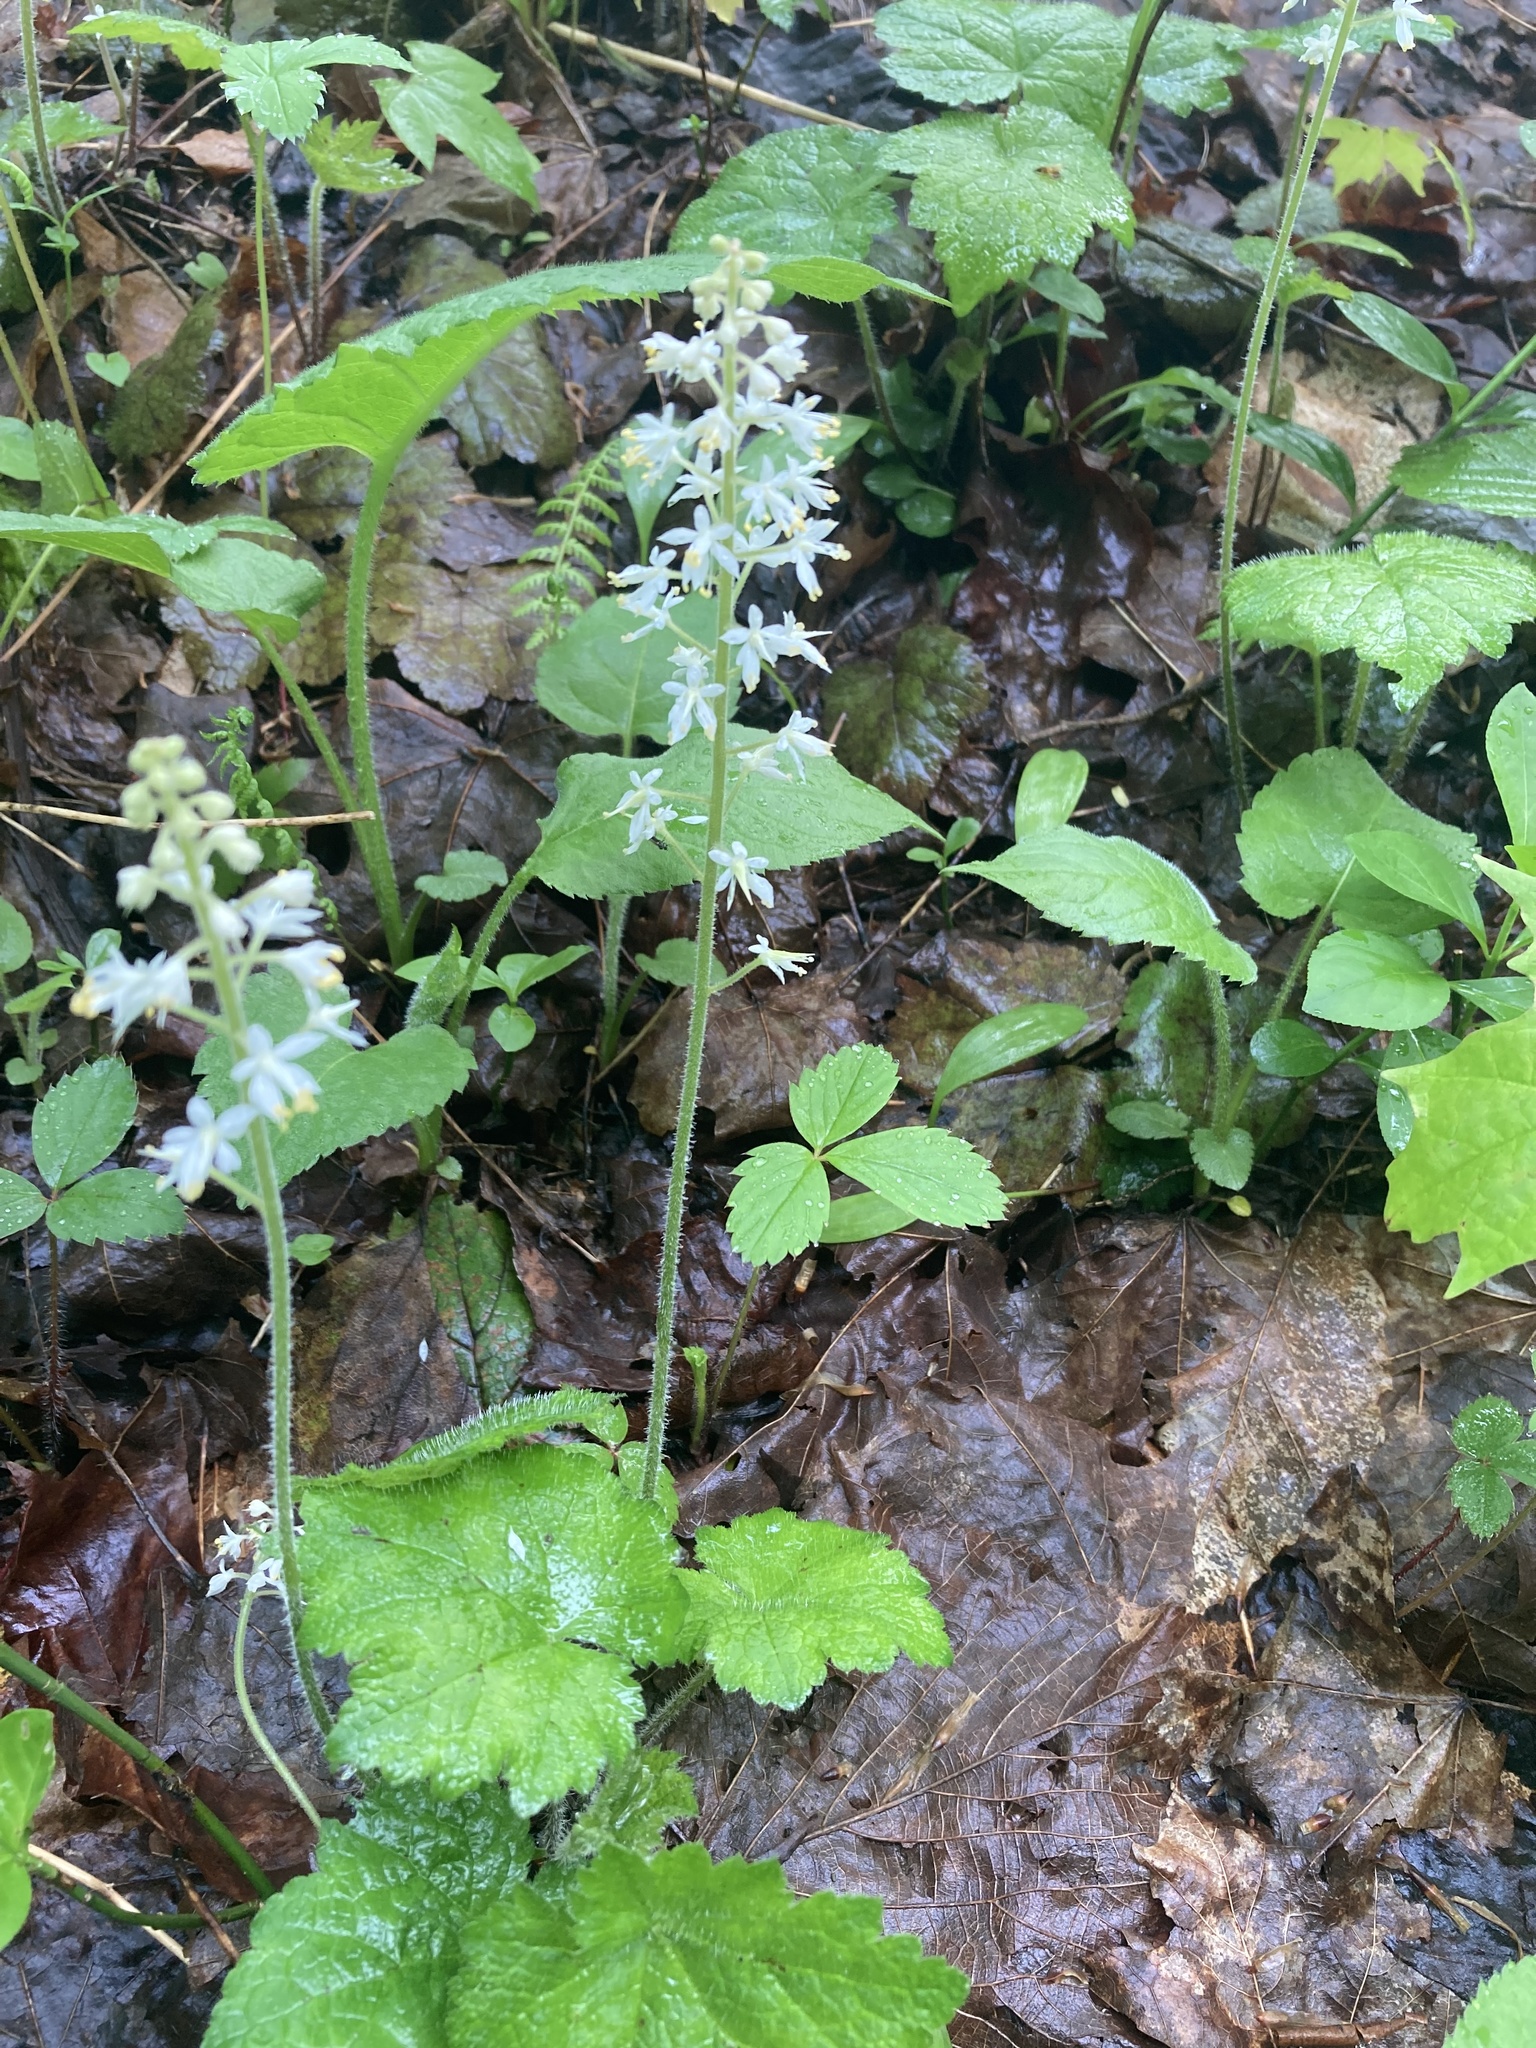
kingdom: Plantae
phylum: Tracheophyta
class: Magnoliopsida
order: Saxifragales
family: Saxifragaceae
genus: Tiarella
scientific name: Tiarella stolonifera
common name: Stoloniferous foamflower
